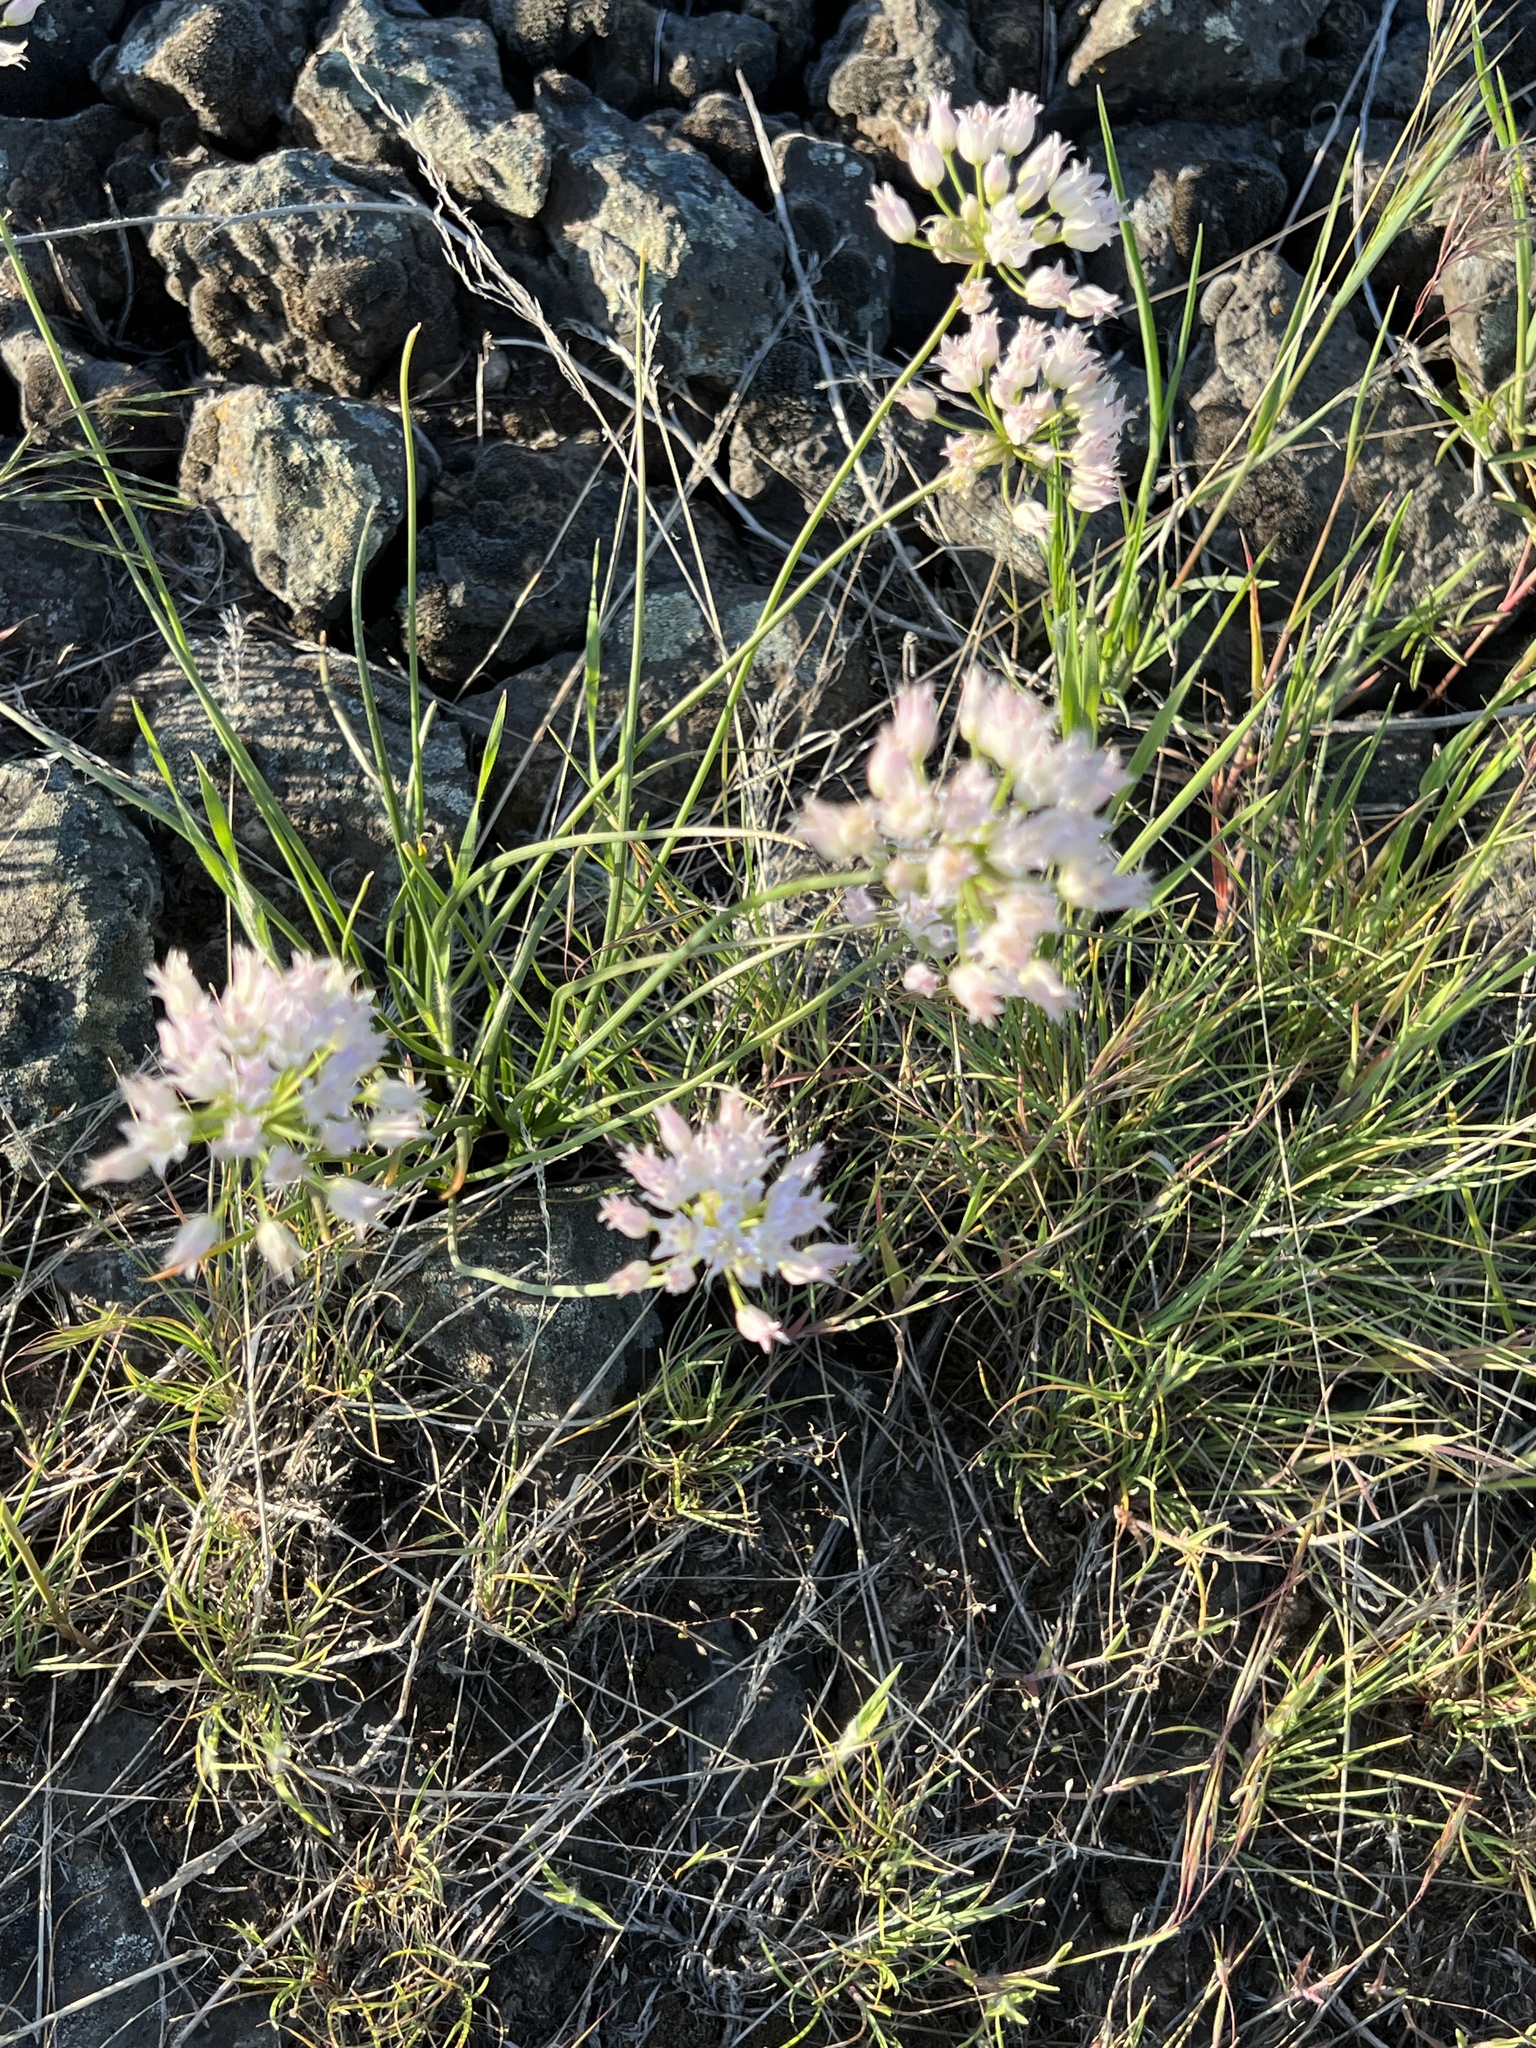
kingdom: Plantae
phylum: Tracheophyta
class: Liliopsida
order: Asparagales
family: Amaryllidaceae
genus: Allium
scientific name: Allium geyeri
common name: Geyer's onion
